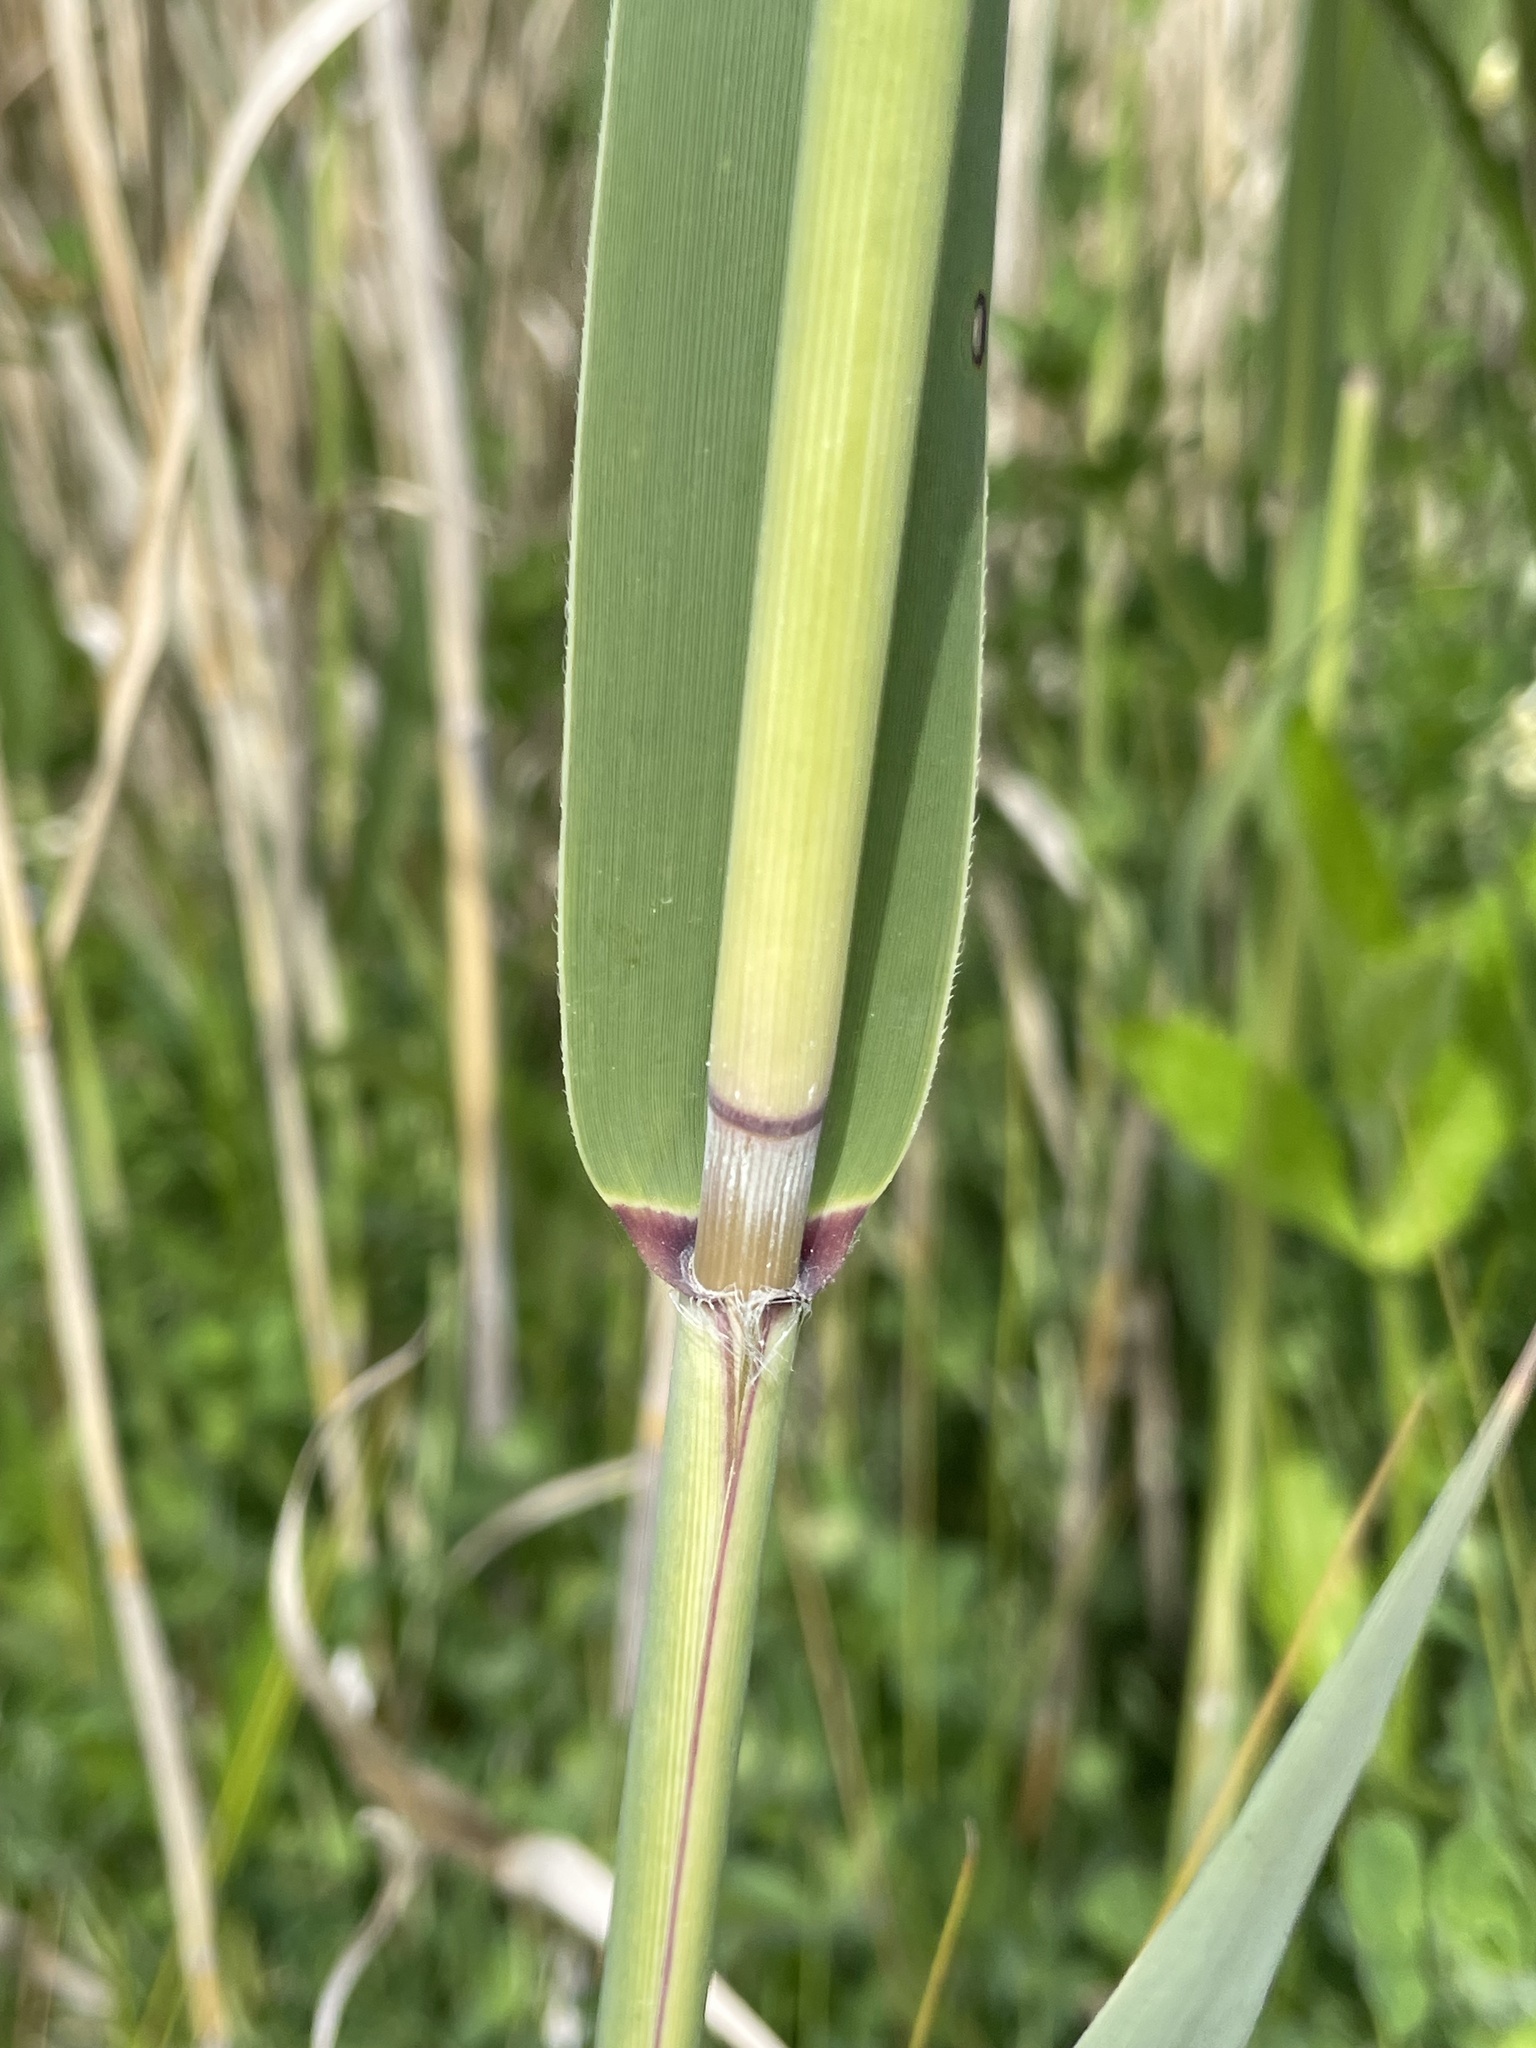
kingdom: Plantae
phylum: Tracheophyta
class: Liliopsida
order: Poales
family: Poaceae
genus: Phragmites
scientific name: Phragmites australis
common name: Common reed
